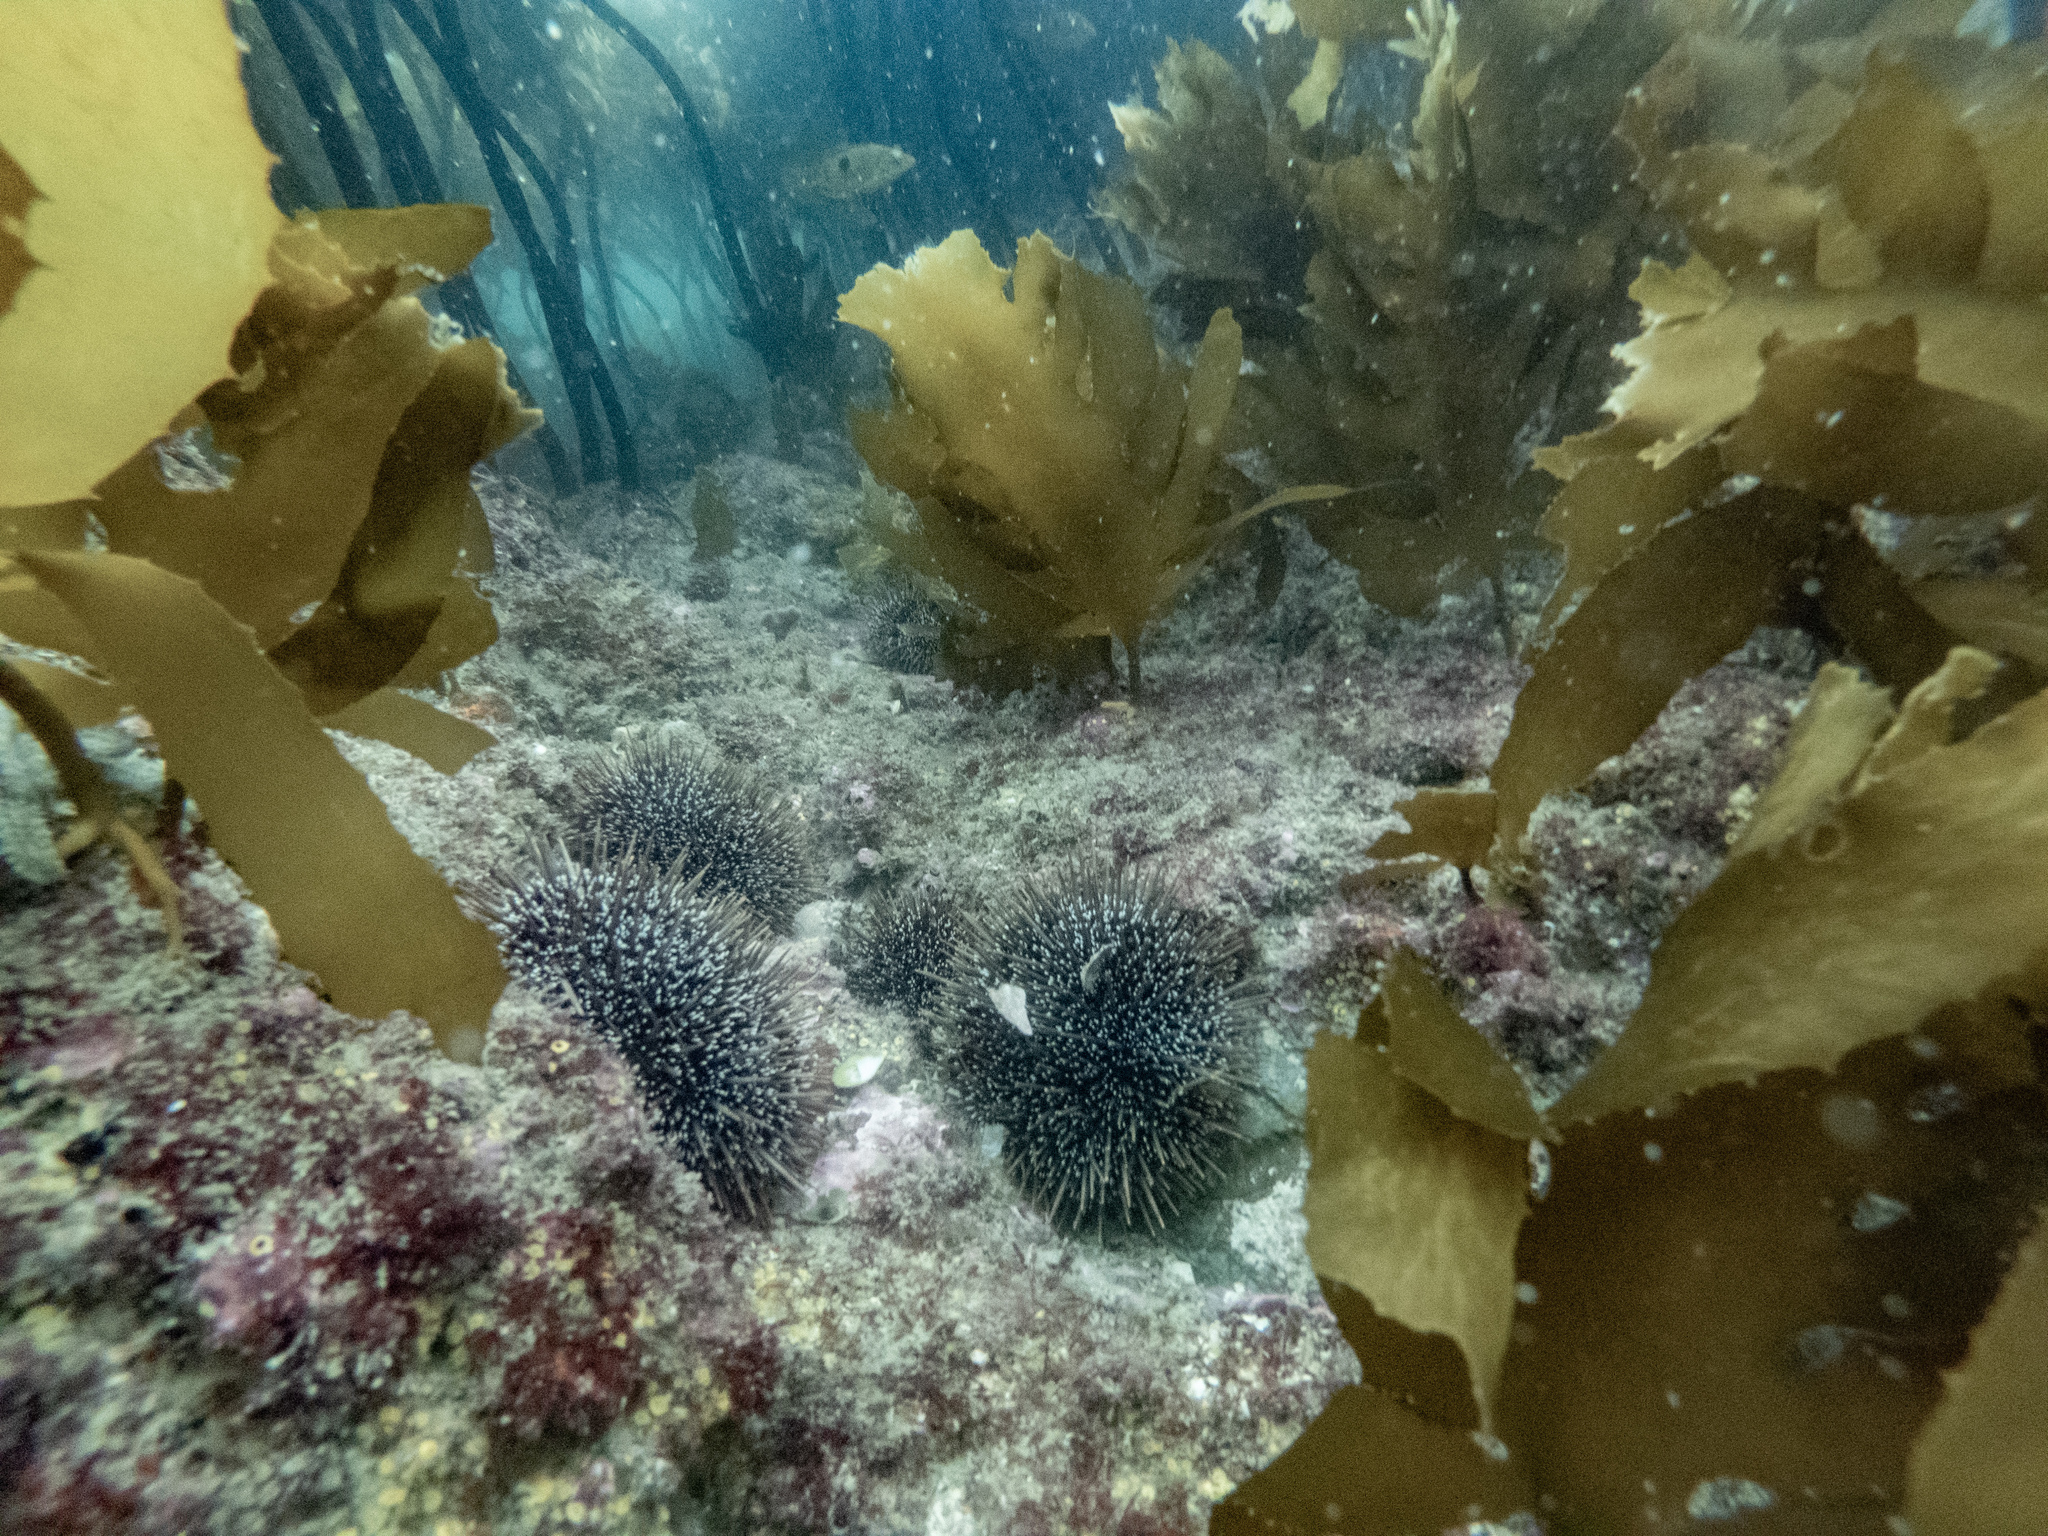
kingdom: Animalia
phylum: Echinodermata
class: Echinoidea
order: Camarodonta
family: Echinometridae
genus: Evechinus
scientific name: Evechinus chloroticus
